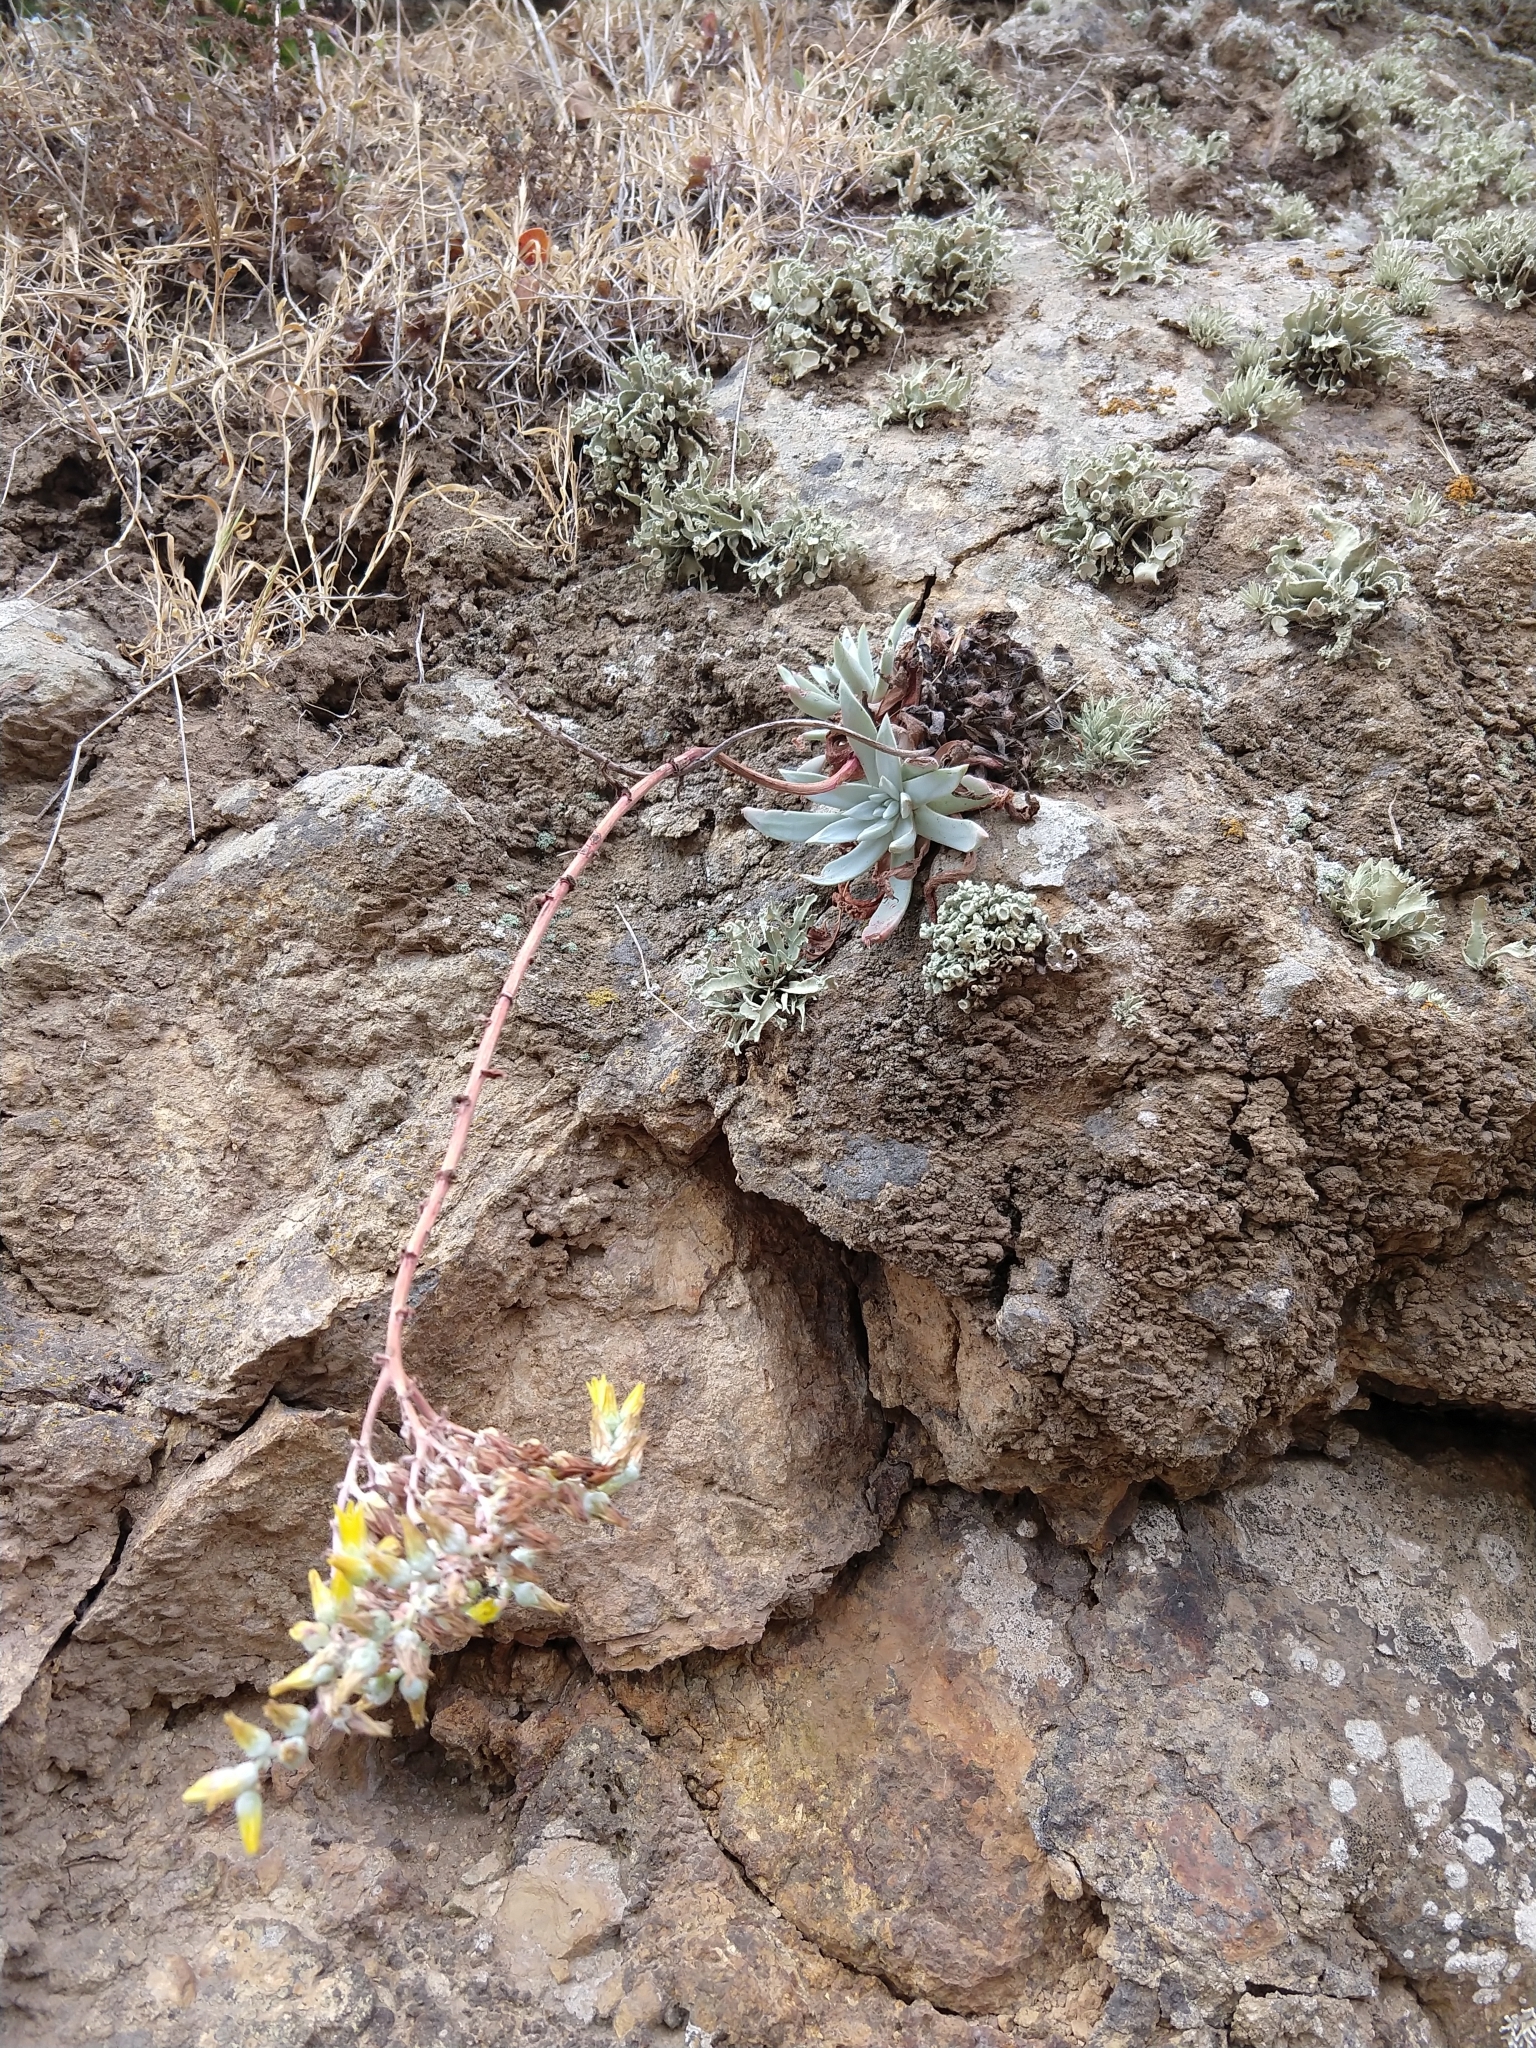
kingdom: Plantae
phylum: Tracheophyta
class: Magnoliopsida
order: Saxifragales
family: Crassulaceae
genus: Dudleya
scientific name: Dudleya greenei
